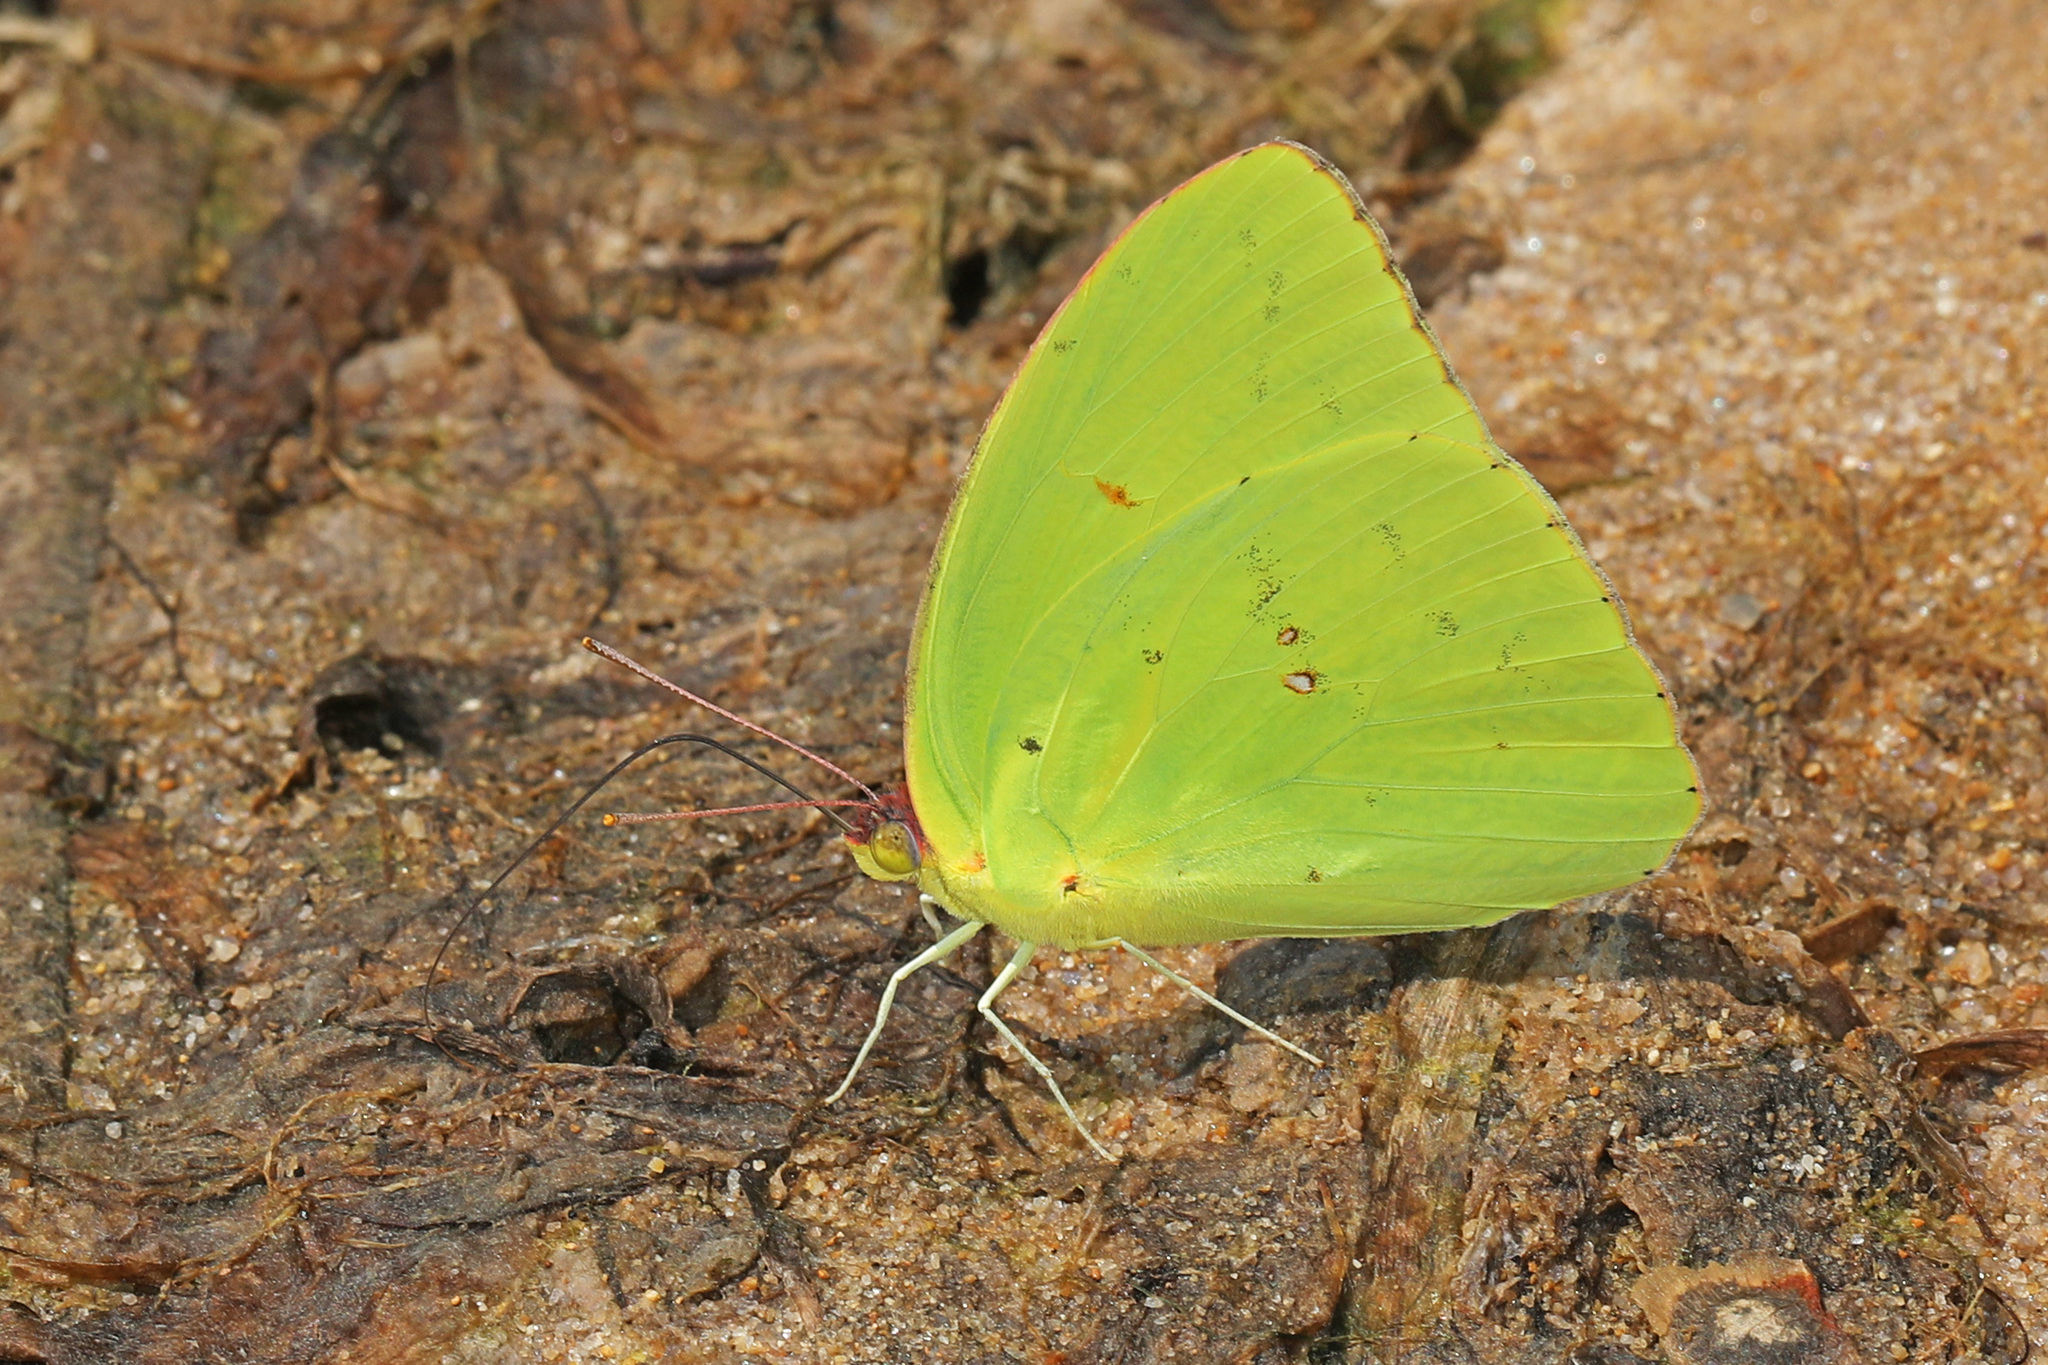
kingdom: Animalia
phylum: Arthropoda
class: Insecta
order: Lepidoptera
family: Pieridae
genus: Phoebis
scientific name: Phoebis sennae
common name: Cloudless sulphur
